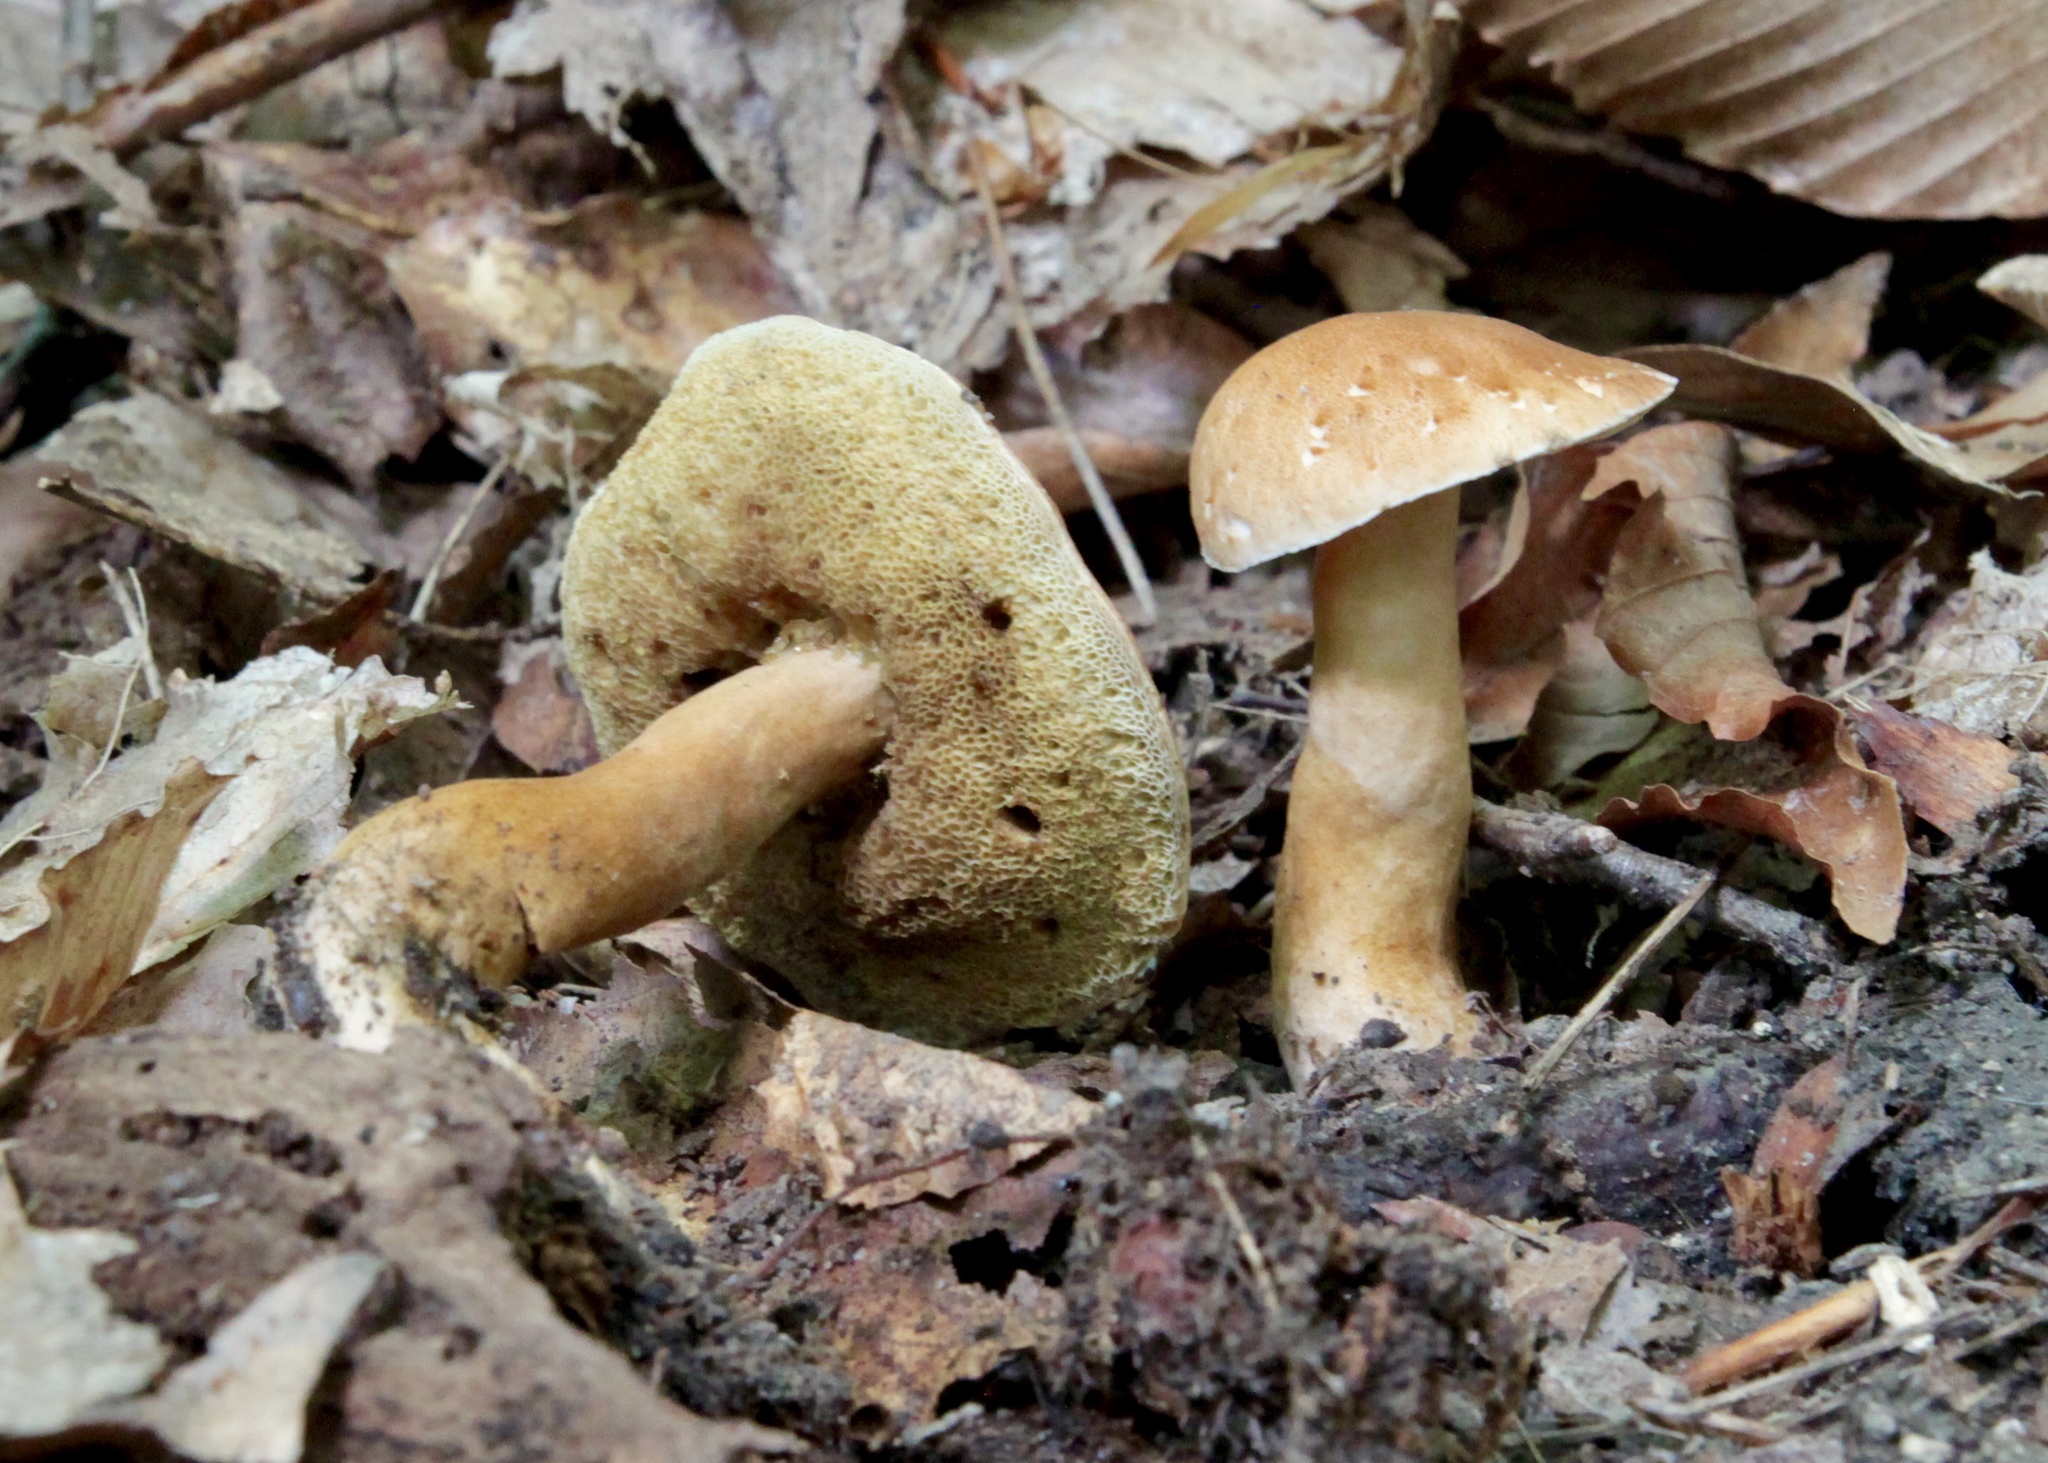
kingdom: Fungi
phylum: Basidiomycota
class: Agaricomycetes
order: Boletales
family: Gyroporaceae
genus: Gyroporus
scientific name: Gyroporus castaneus
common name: Chestnut bolete
